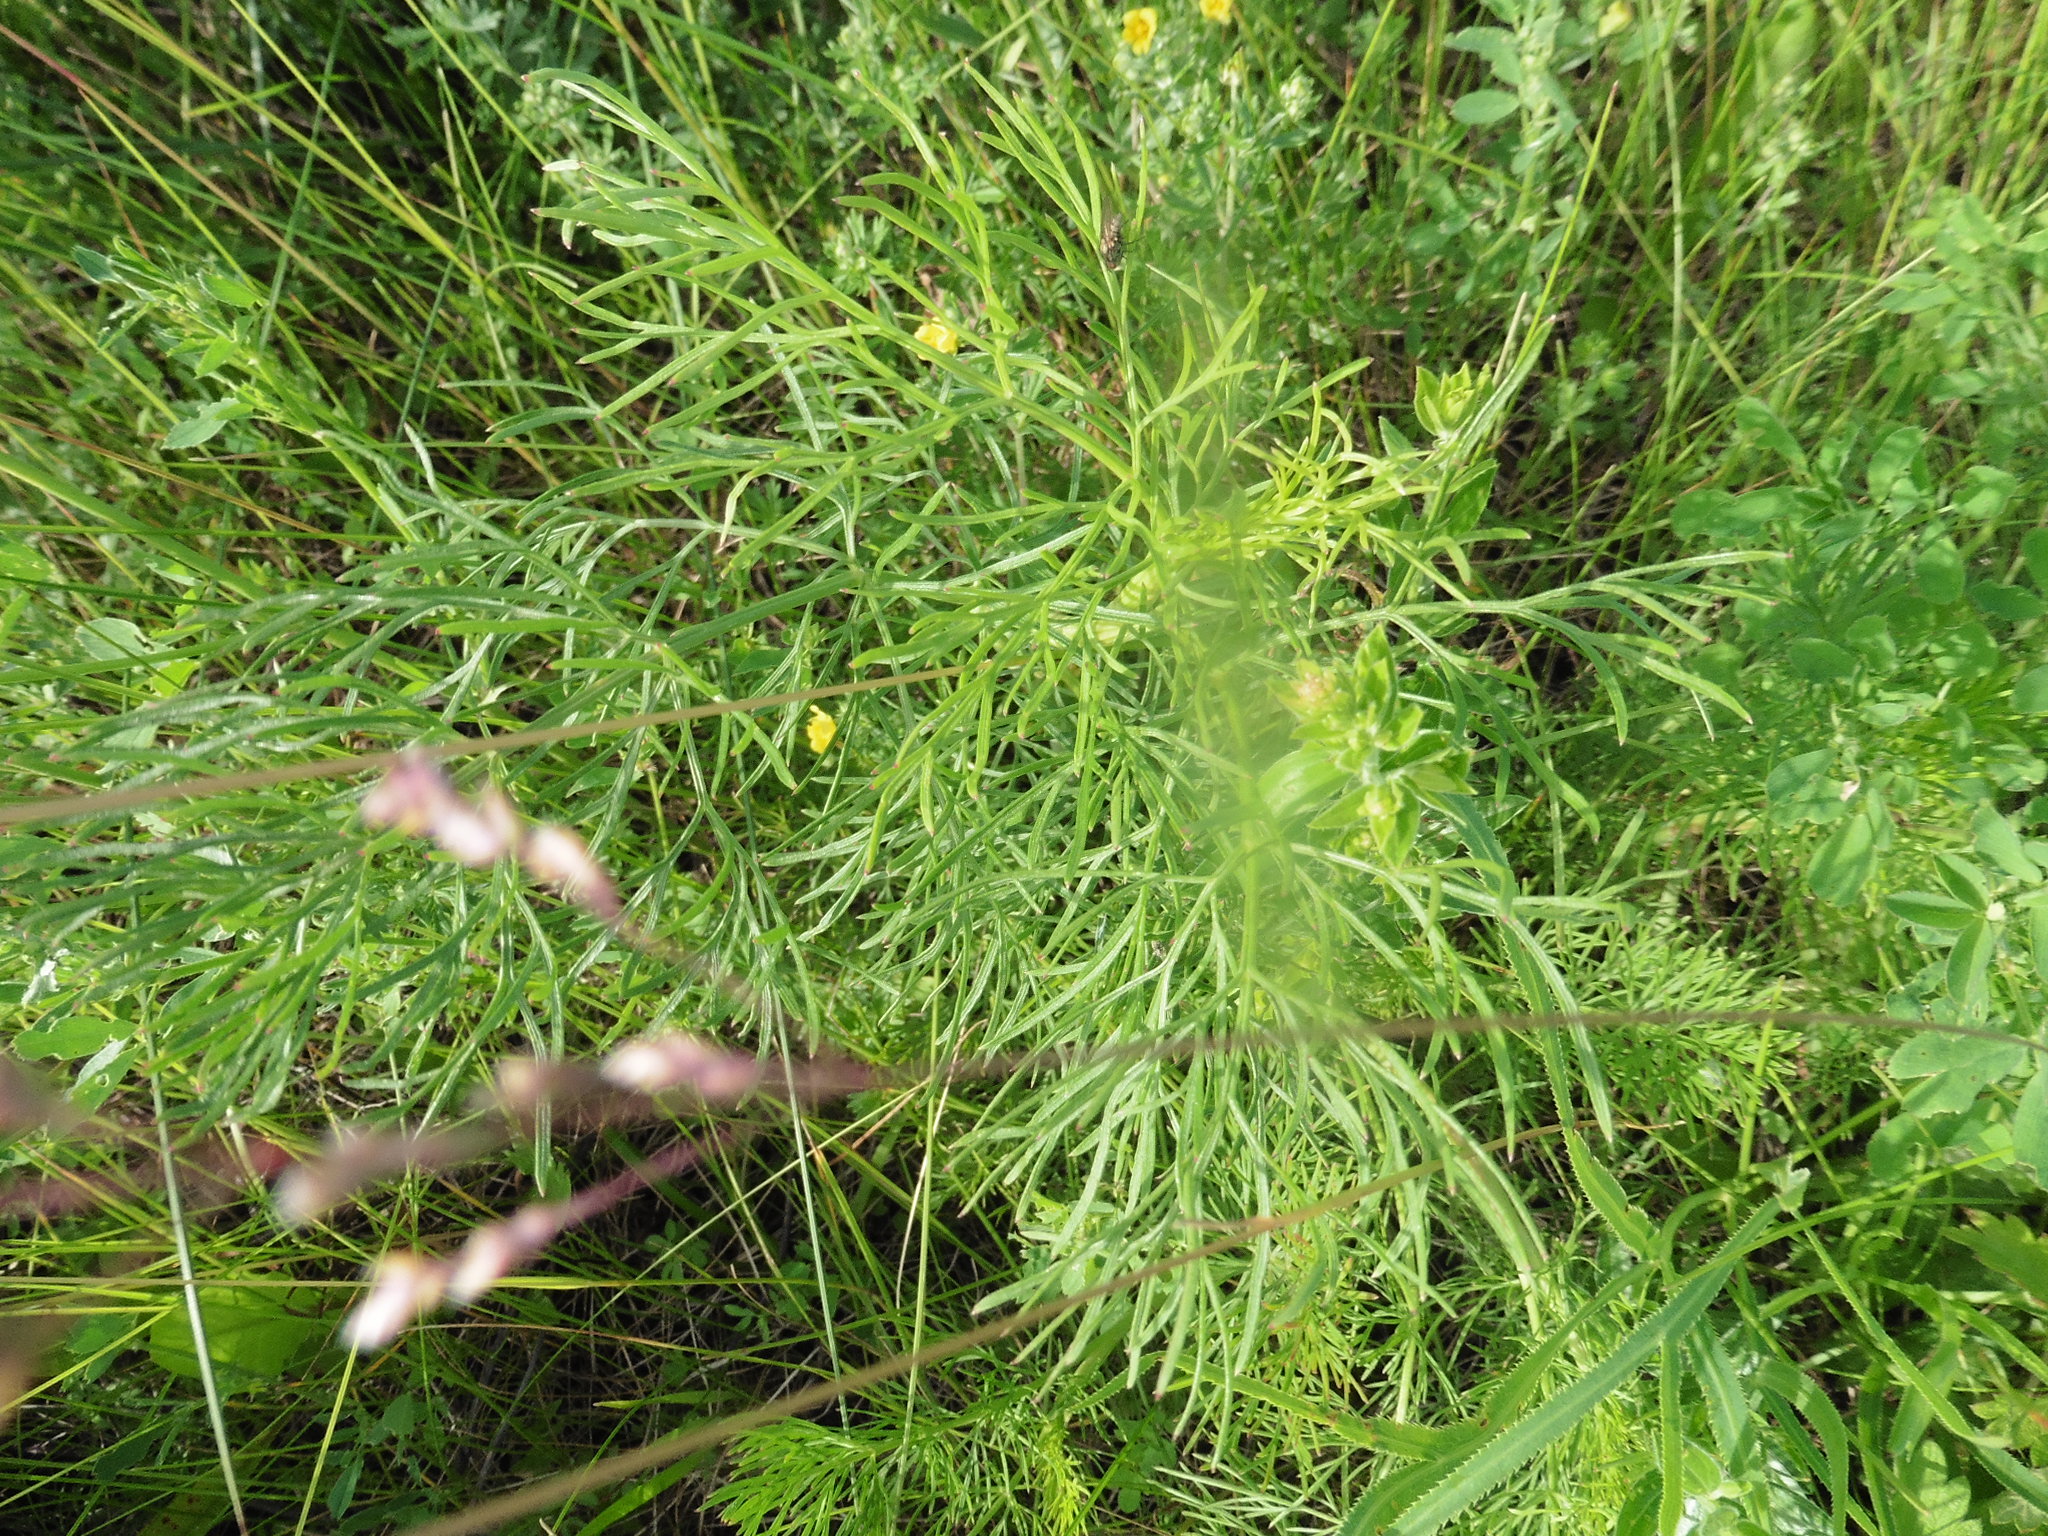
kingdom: Plantae
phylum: Tracheophyta
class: Magnoliopsida
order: Apiales
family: Apiaceae
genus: Seseli
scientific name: Seseli annuum
